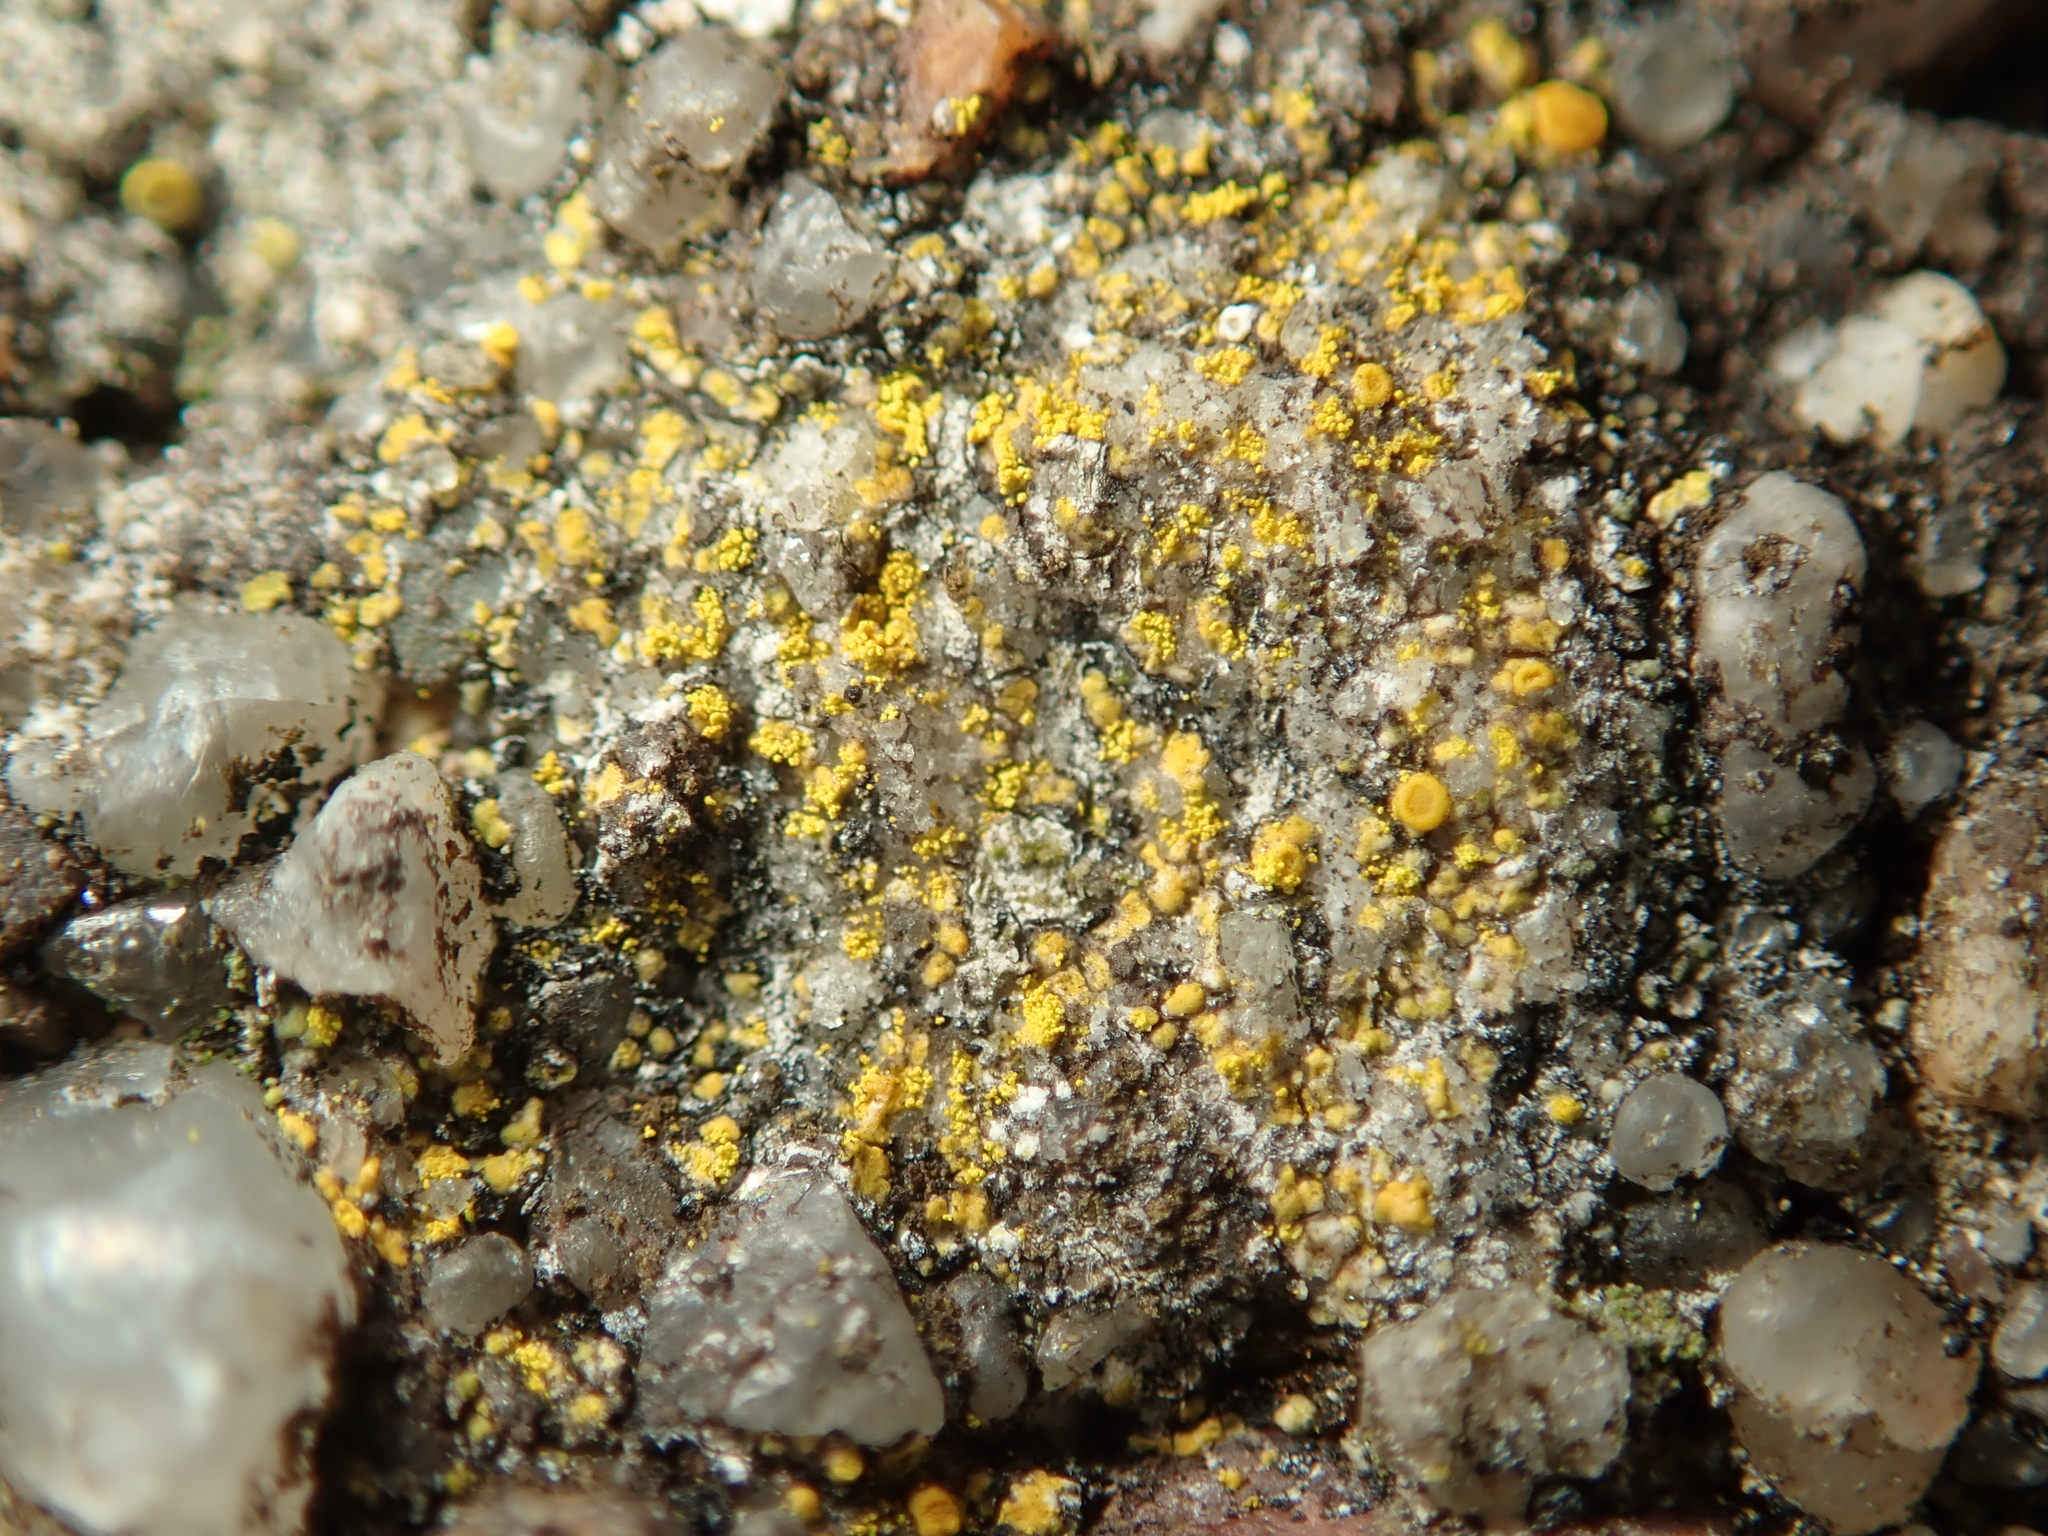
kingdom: Fungi
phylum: Ascomycota
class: Lecanoromycetes
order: Teloschistales
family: Teloschistaceae
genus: Flavoplaca
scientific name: Flavoplaca
